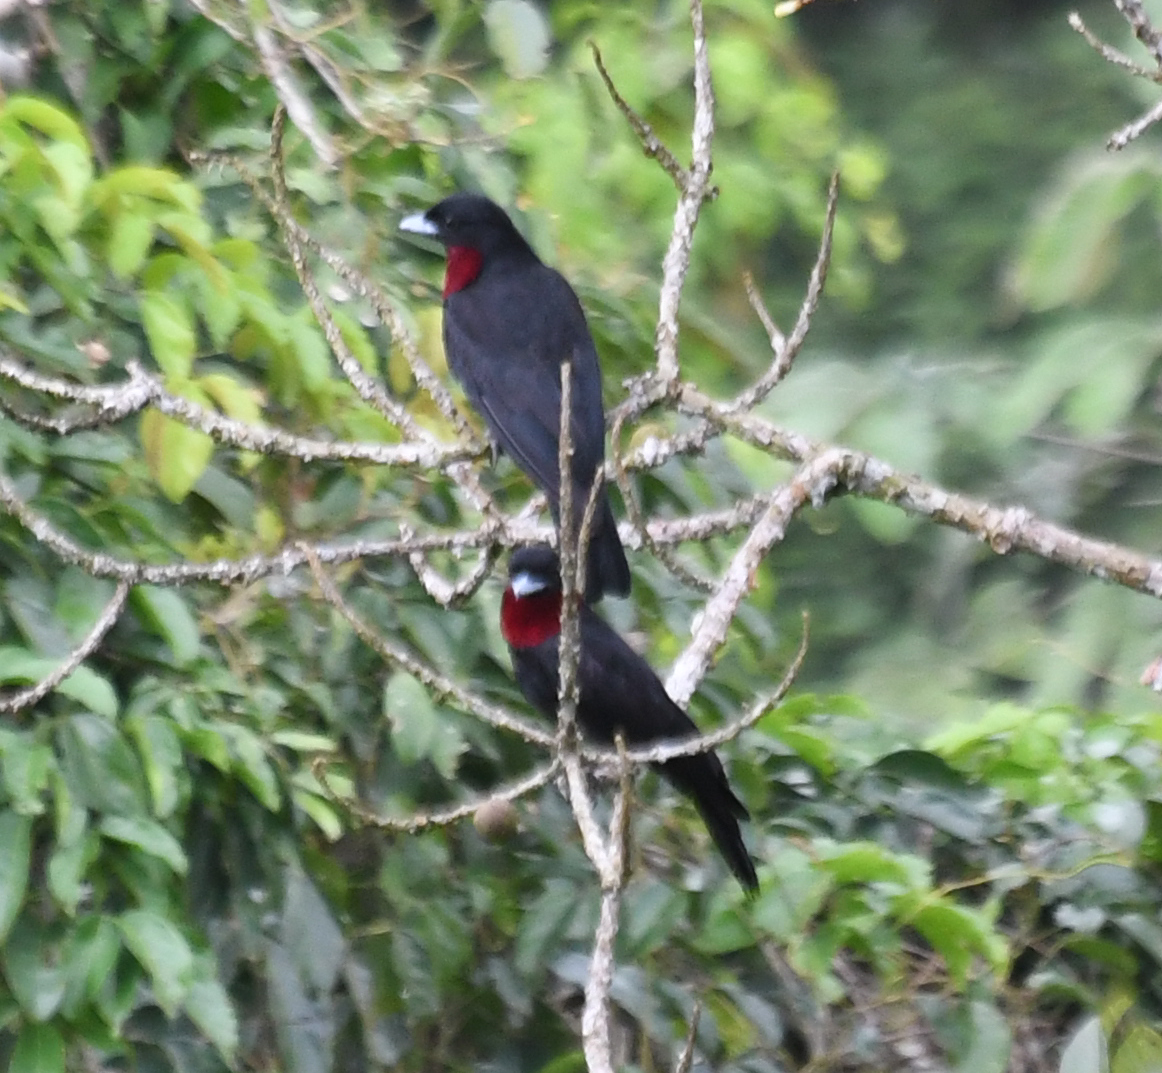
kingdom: Animalia
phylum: Chordata
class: Aves
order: Passeriformes
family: Cotingidae
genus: Querula
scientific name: Querula purpurata
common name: Purple-throated fruitcrow
